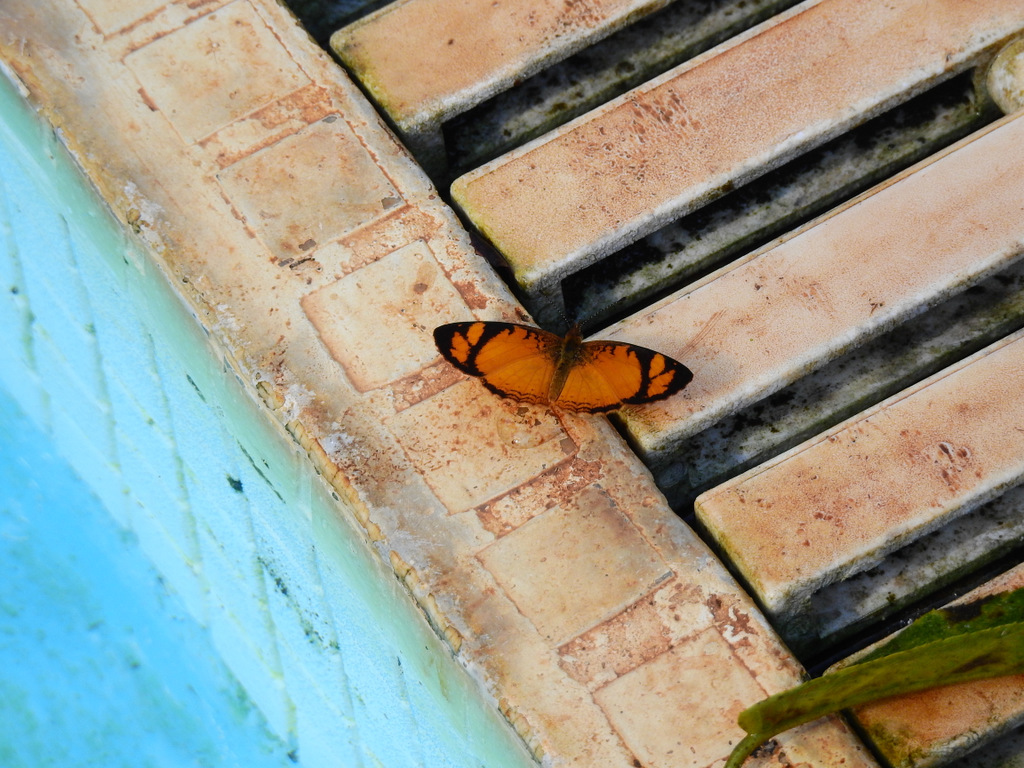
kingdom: Animalia
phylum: Arthropoda
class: Insecta
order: Lepidoptera
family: Nymphalidae
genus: Tegosa
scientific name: Tegosa claudina
